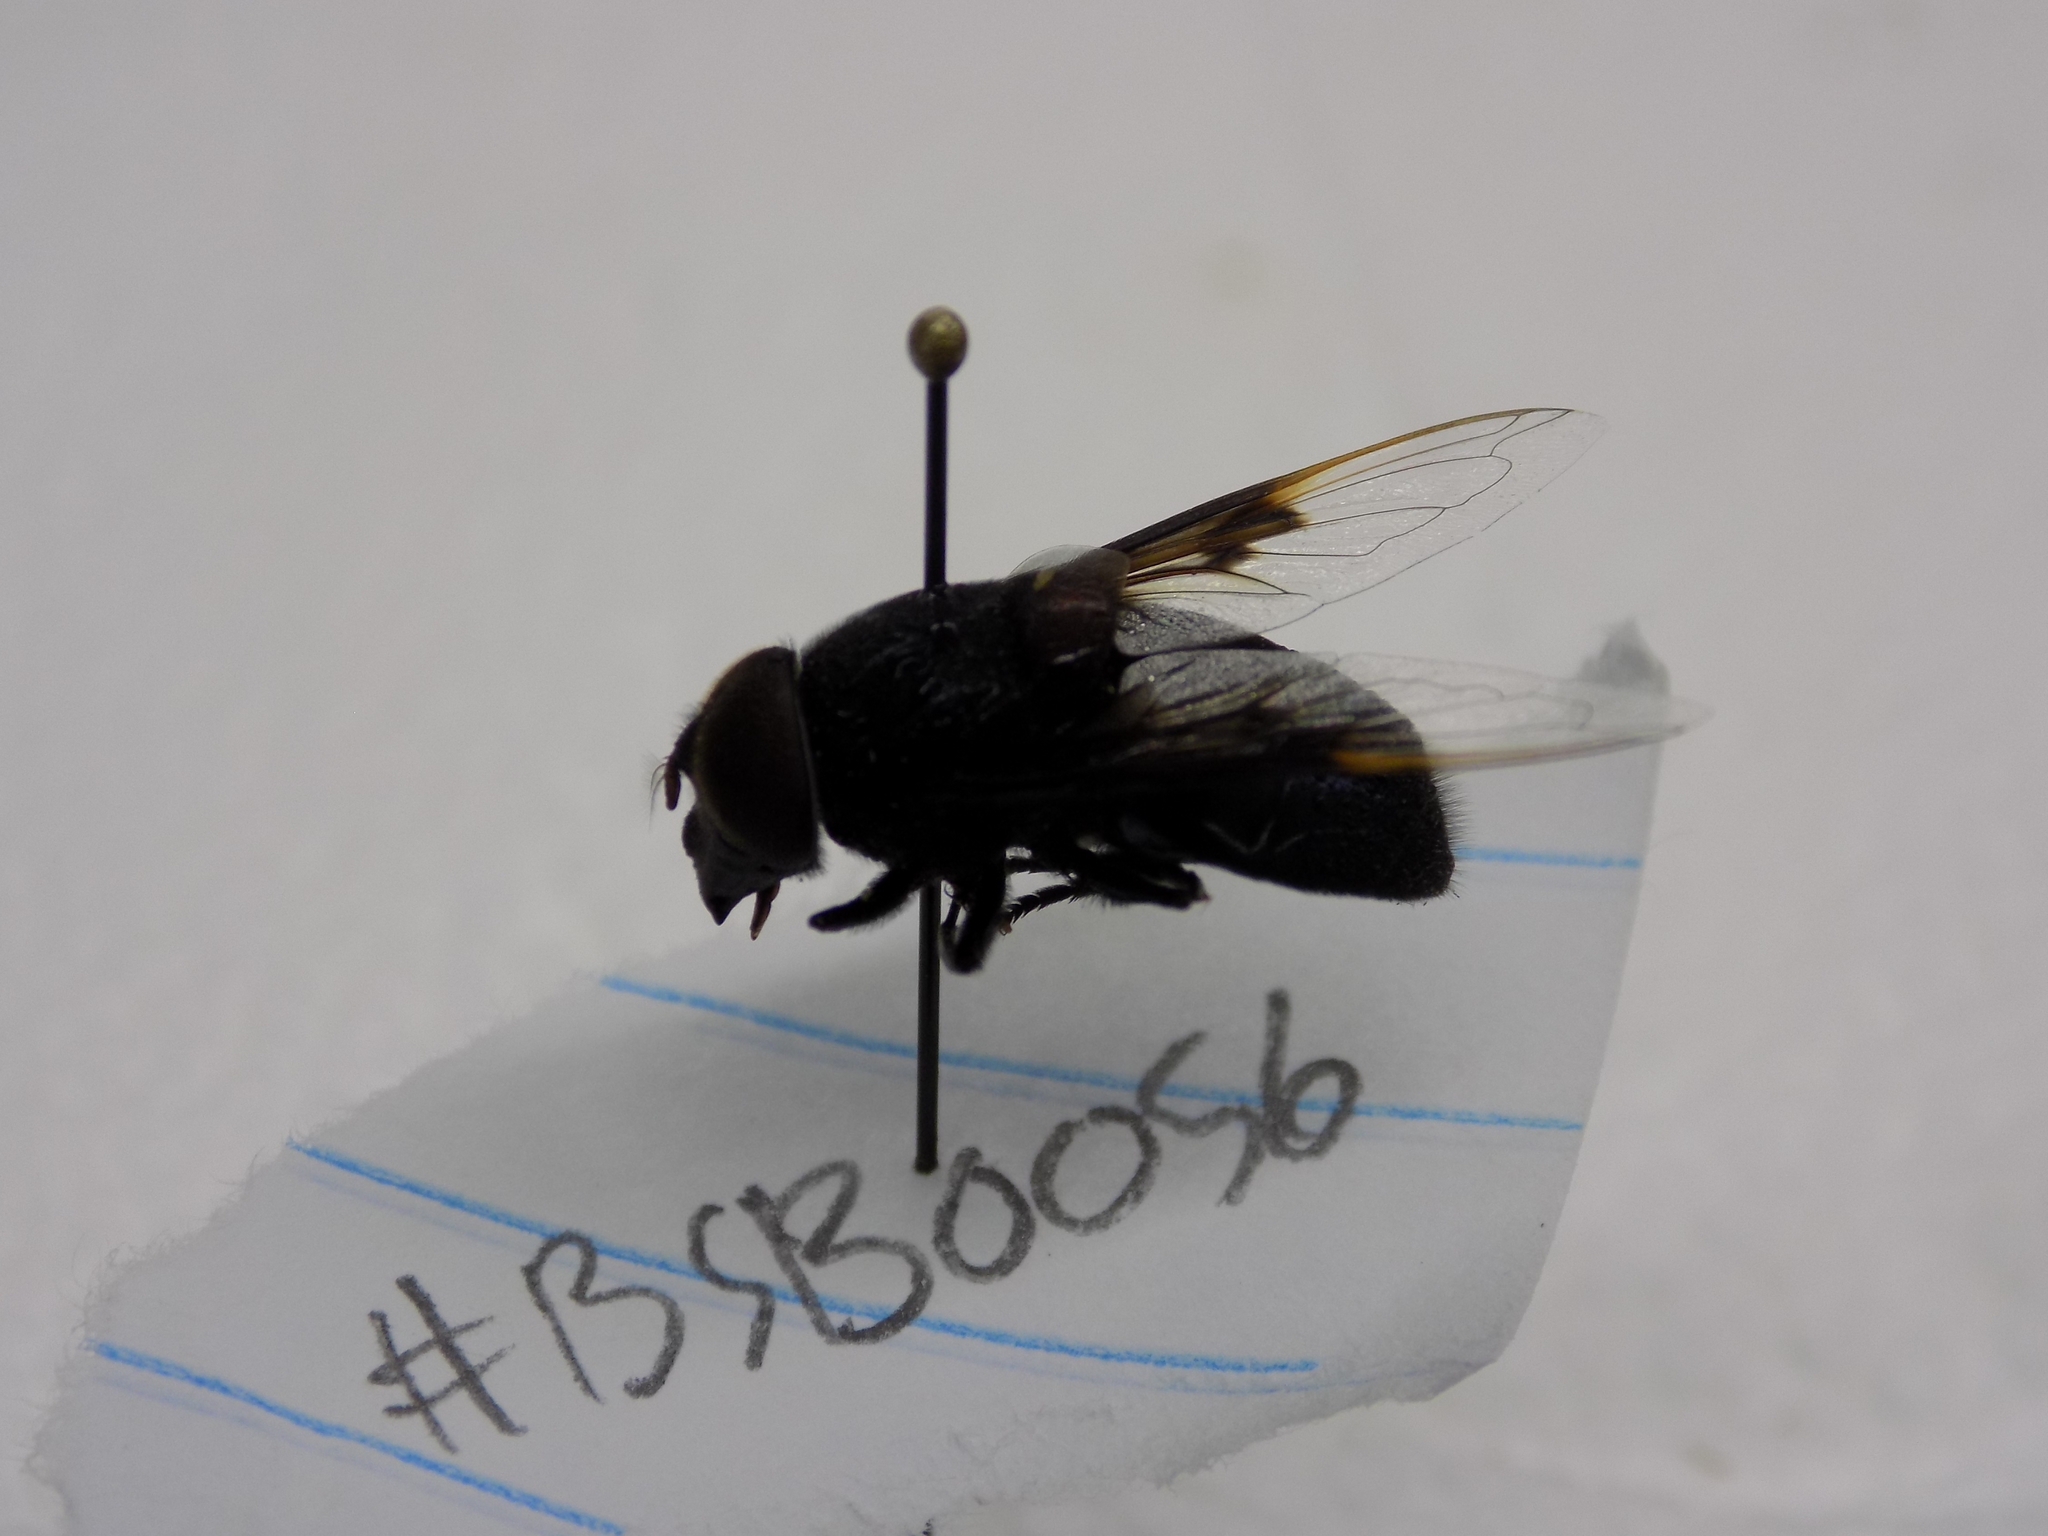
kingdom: Animalia
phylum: Arthropoda
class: Insecta
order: Diptera
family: Syrphidae
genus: Copestylum
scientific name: Copestylum mexicanum
